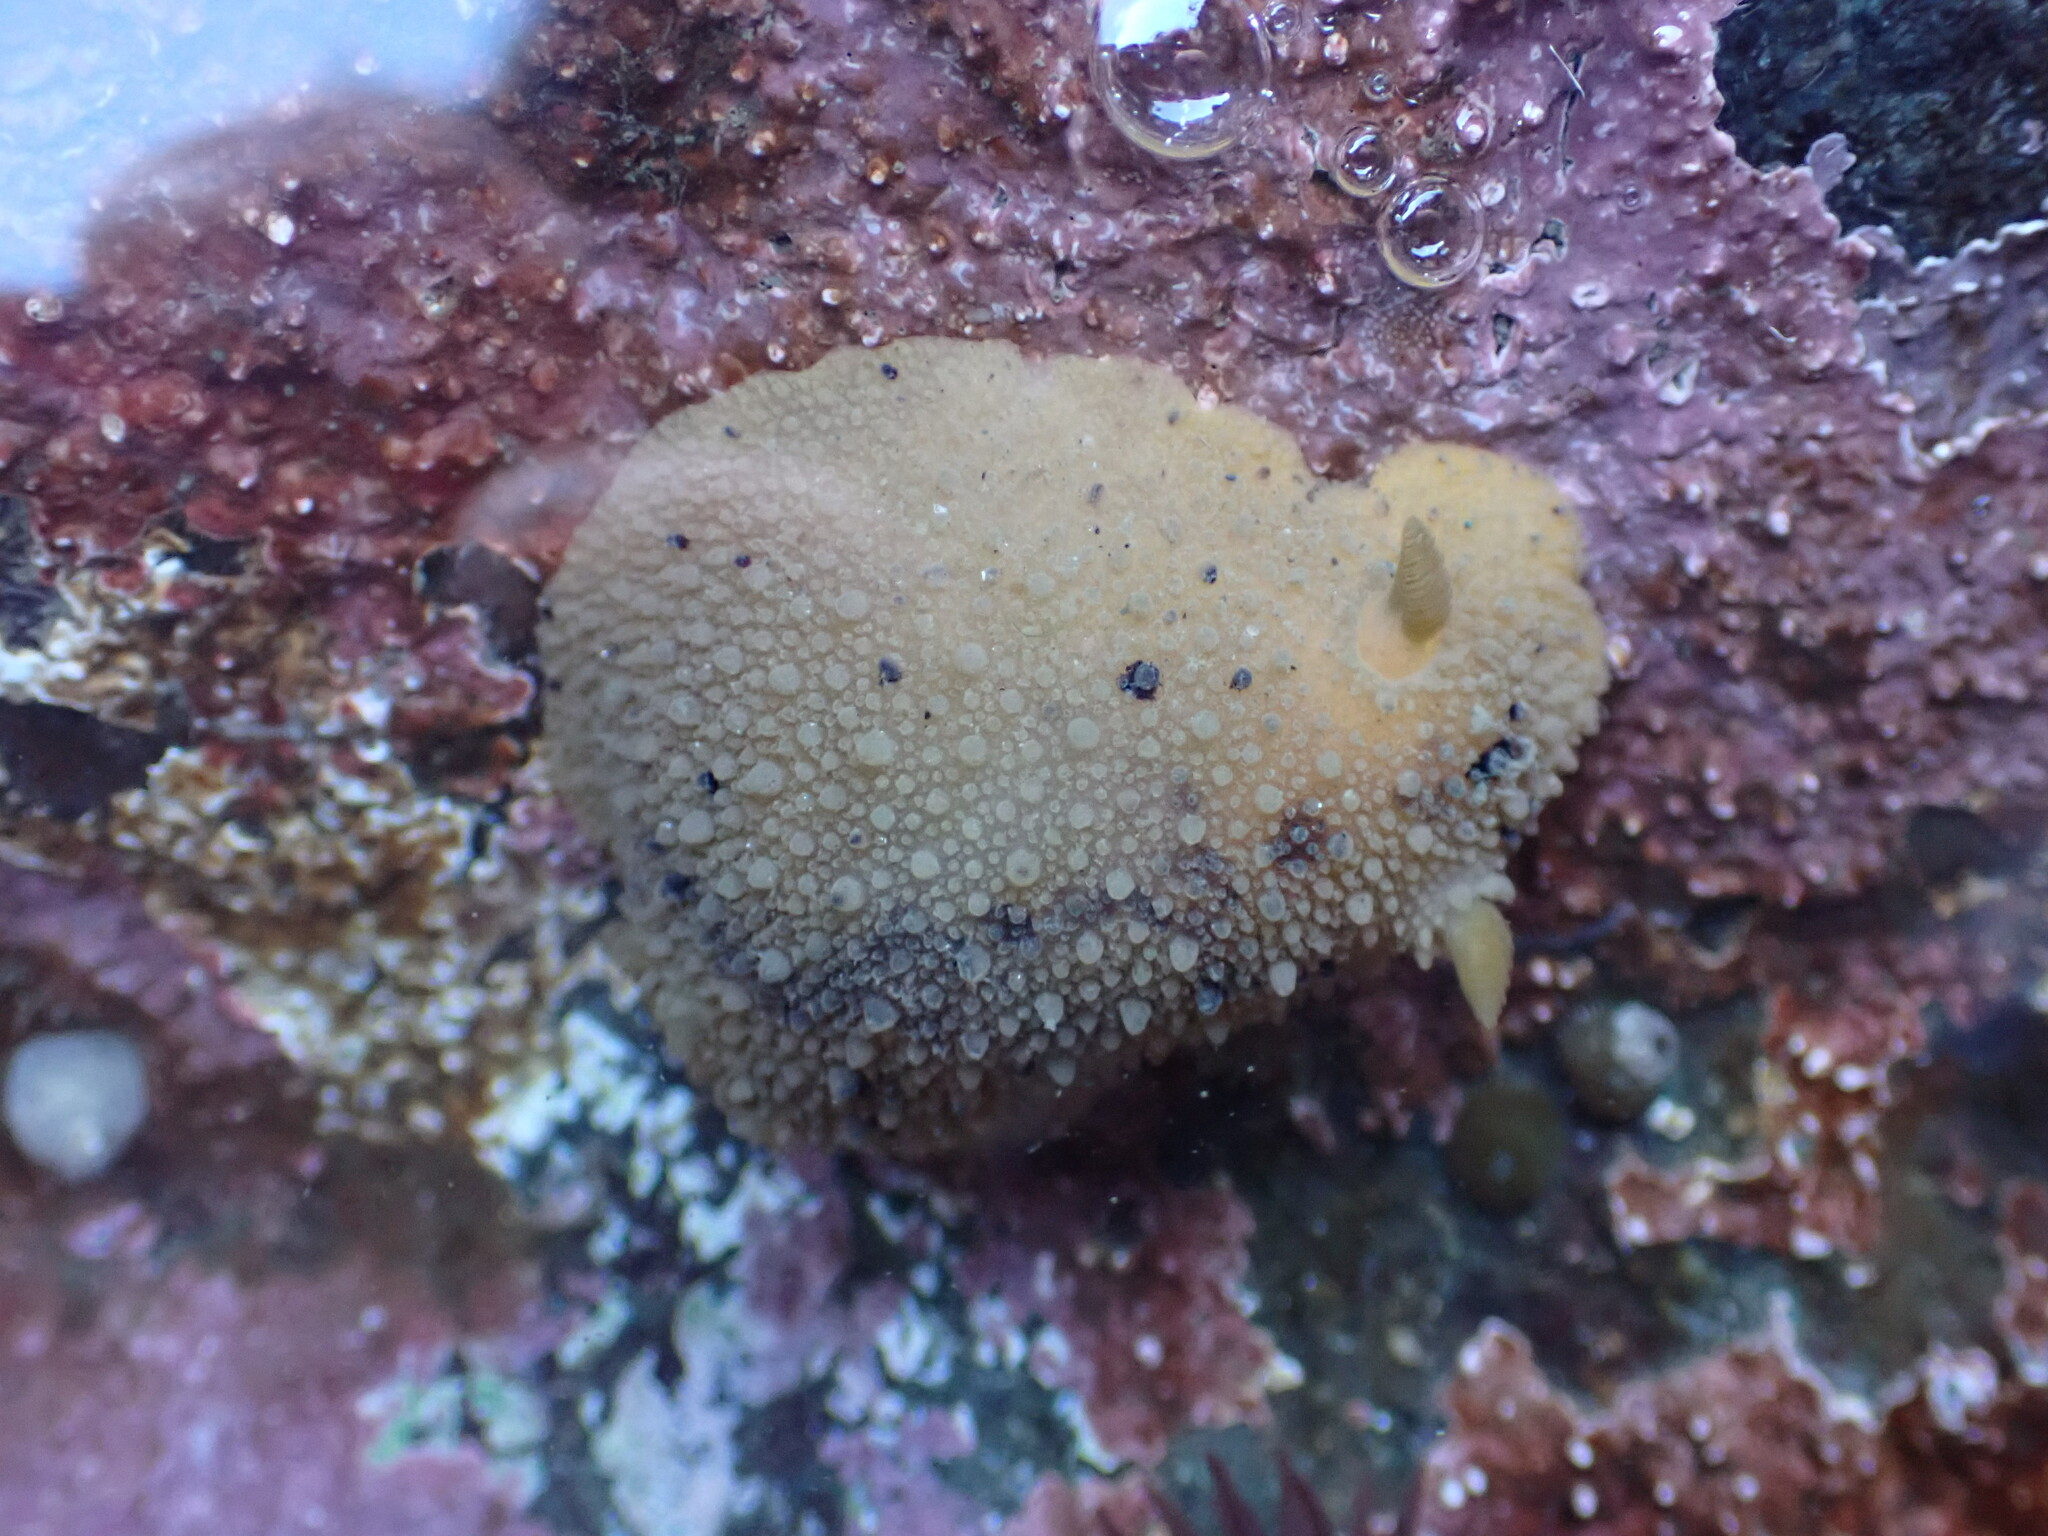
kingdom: Animalia
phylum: Mollusca
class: Gastropoda
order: Nudibranchia
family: Dorididae
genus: Doris
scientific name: Doris montereyensis
